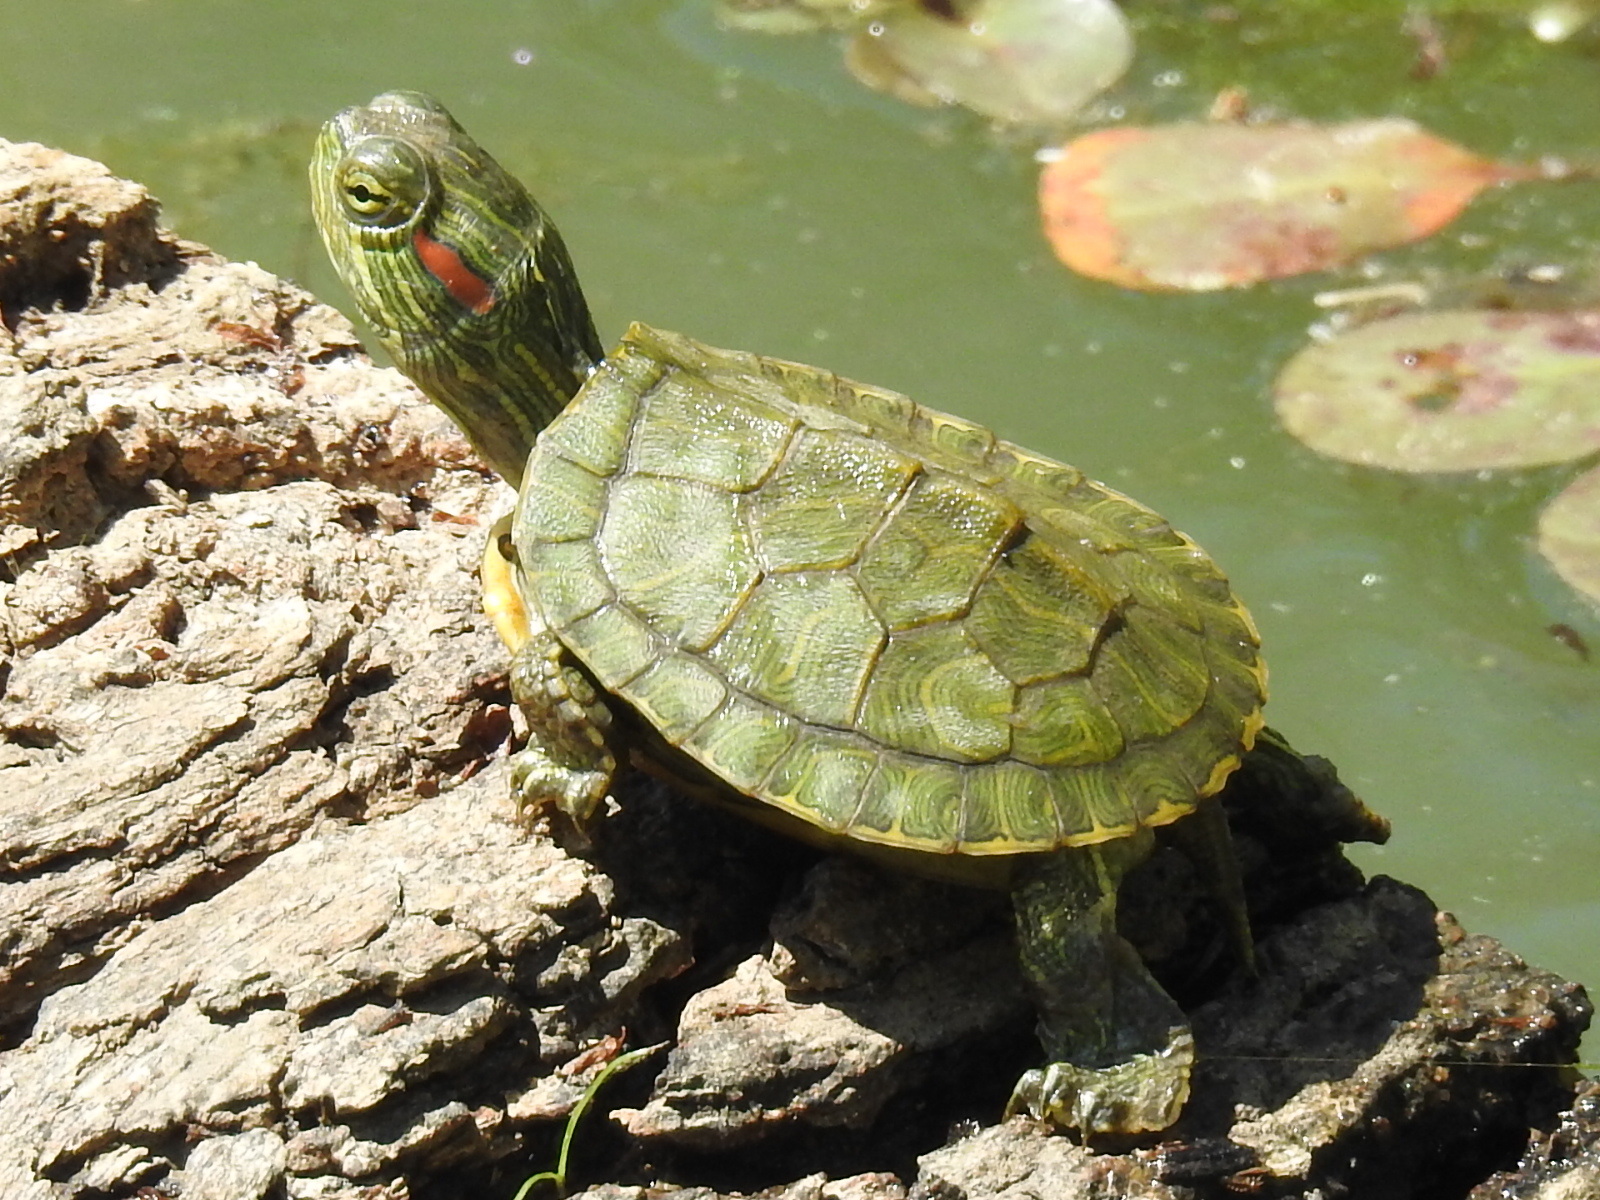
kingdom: Animalia
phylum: Chordata
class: Testudines
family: Emydidae
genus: Trachemys
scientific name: Trachemys scripta
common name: Slider
